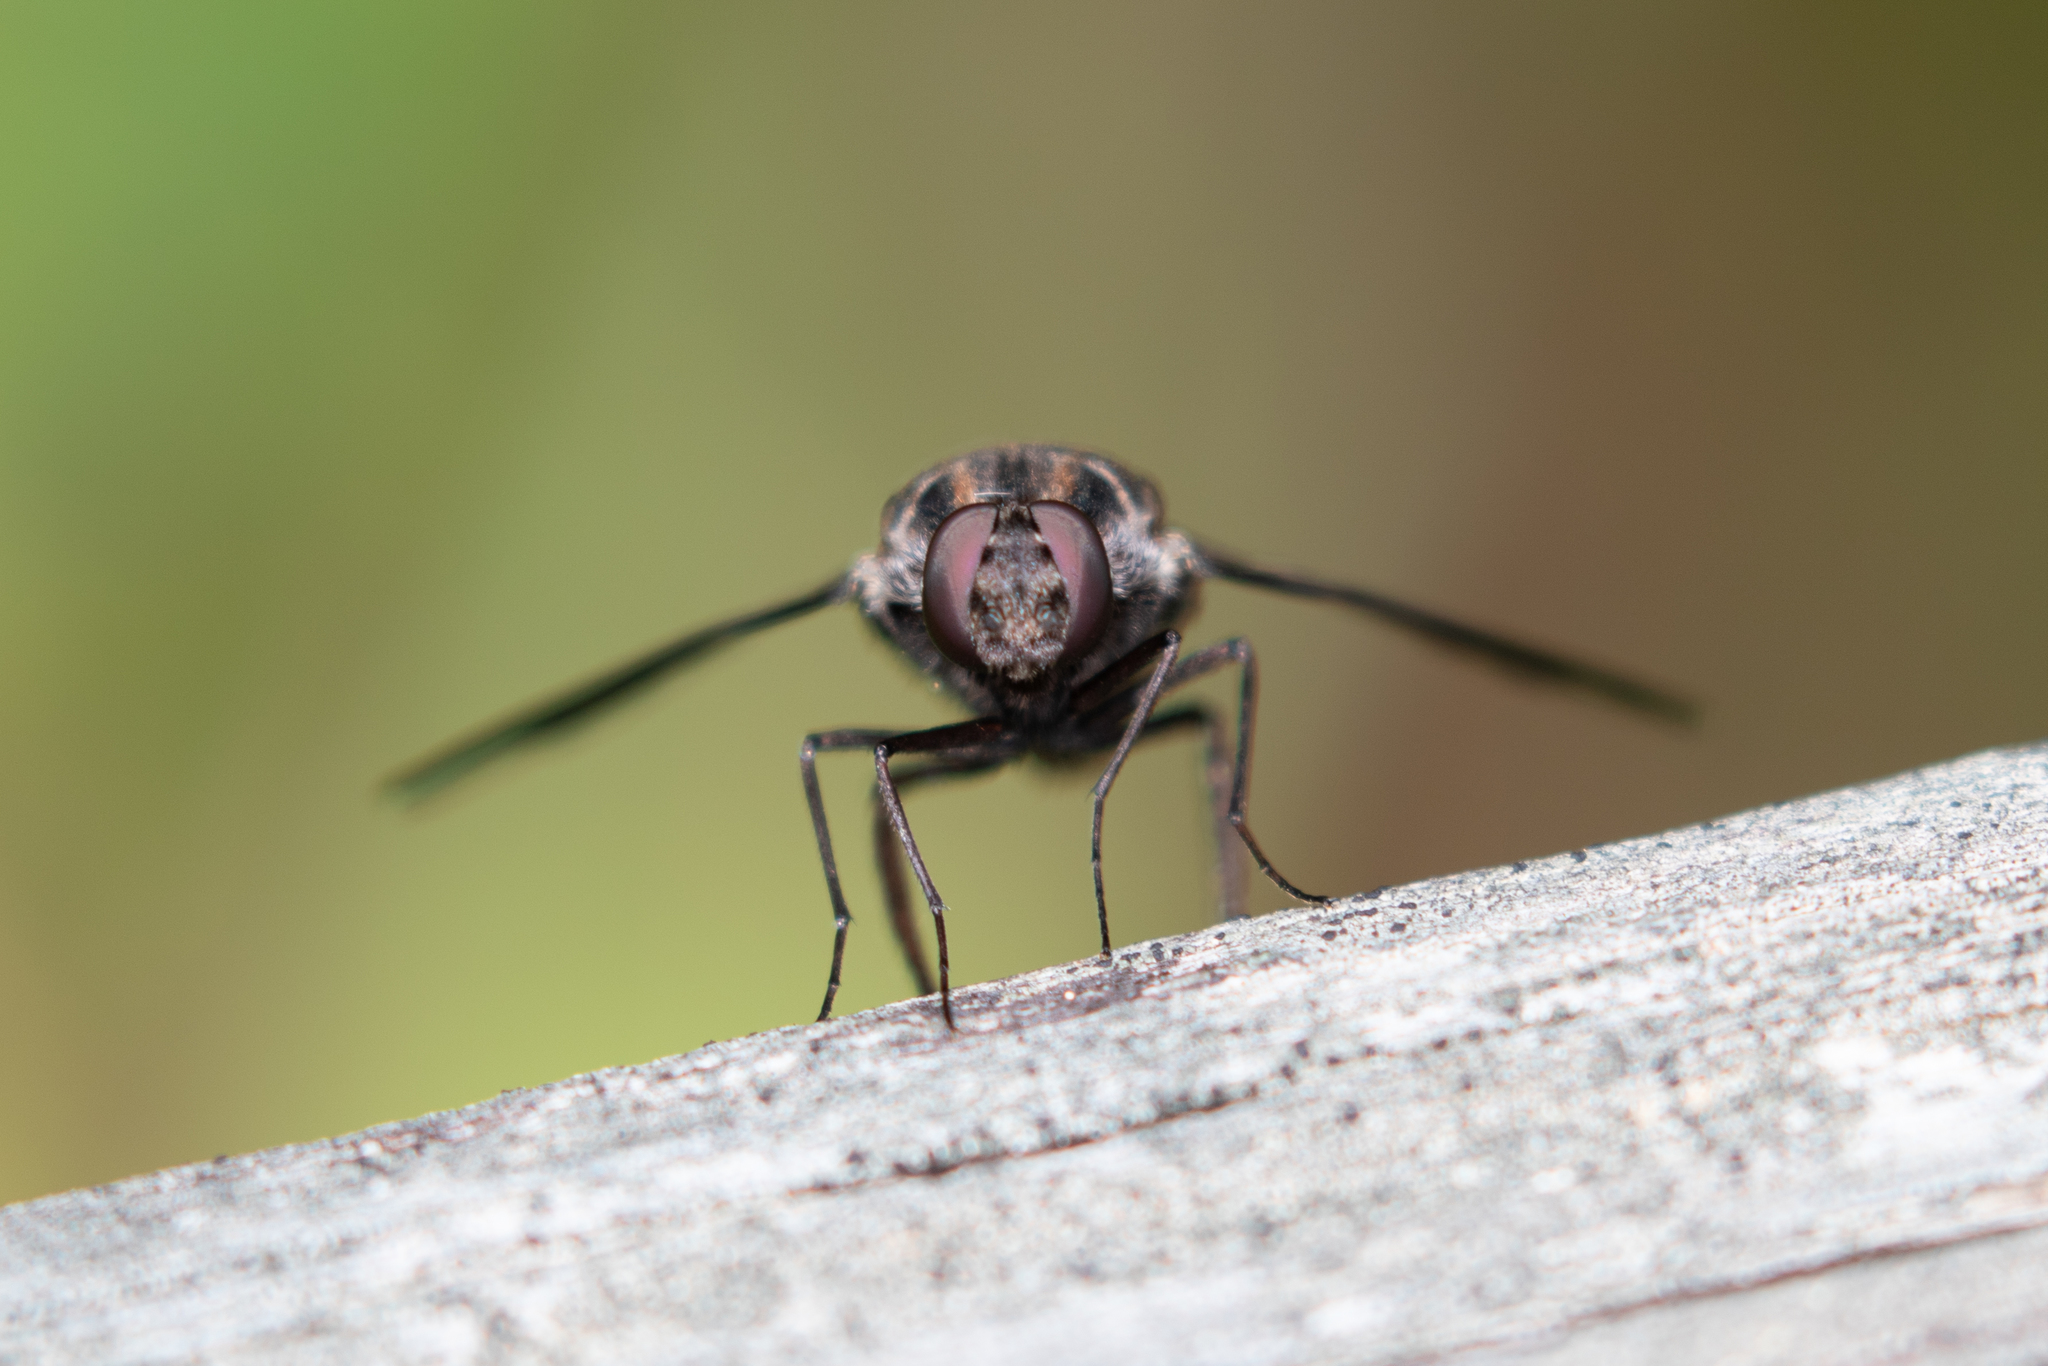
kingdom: Animalia
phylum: Arthropoda
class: Insecta
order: Diptera
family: Bombyliidae
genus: Xenox
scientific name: Xenox tigrinus
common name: Tiger bee fly
